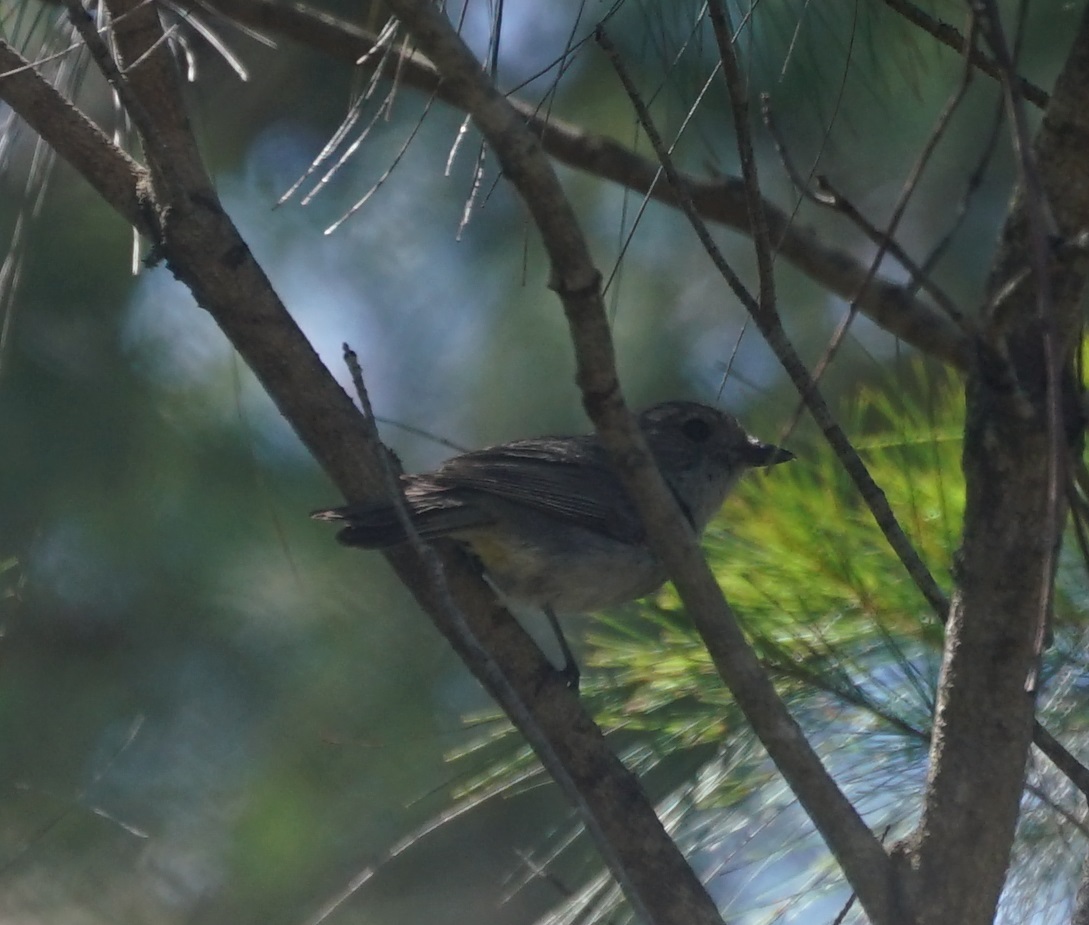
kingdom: Animalia
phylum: Chordata
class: Aves
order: Passeriformes
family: Pachycephalidae
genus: Pachycephala
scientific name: Pachycephala pectoralis
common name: Australian golden whistler
